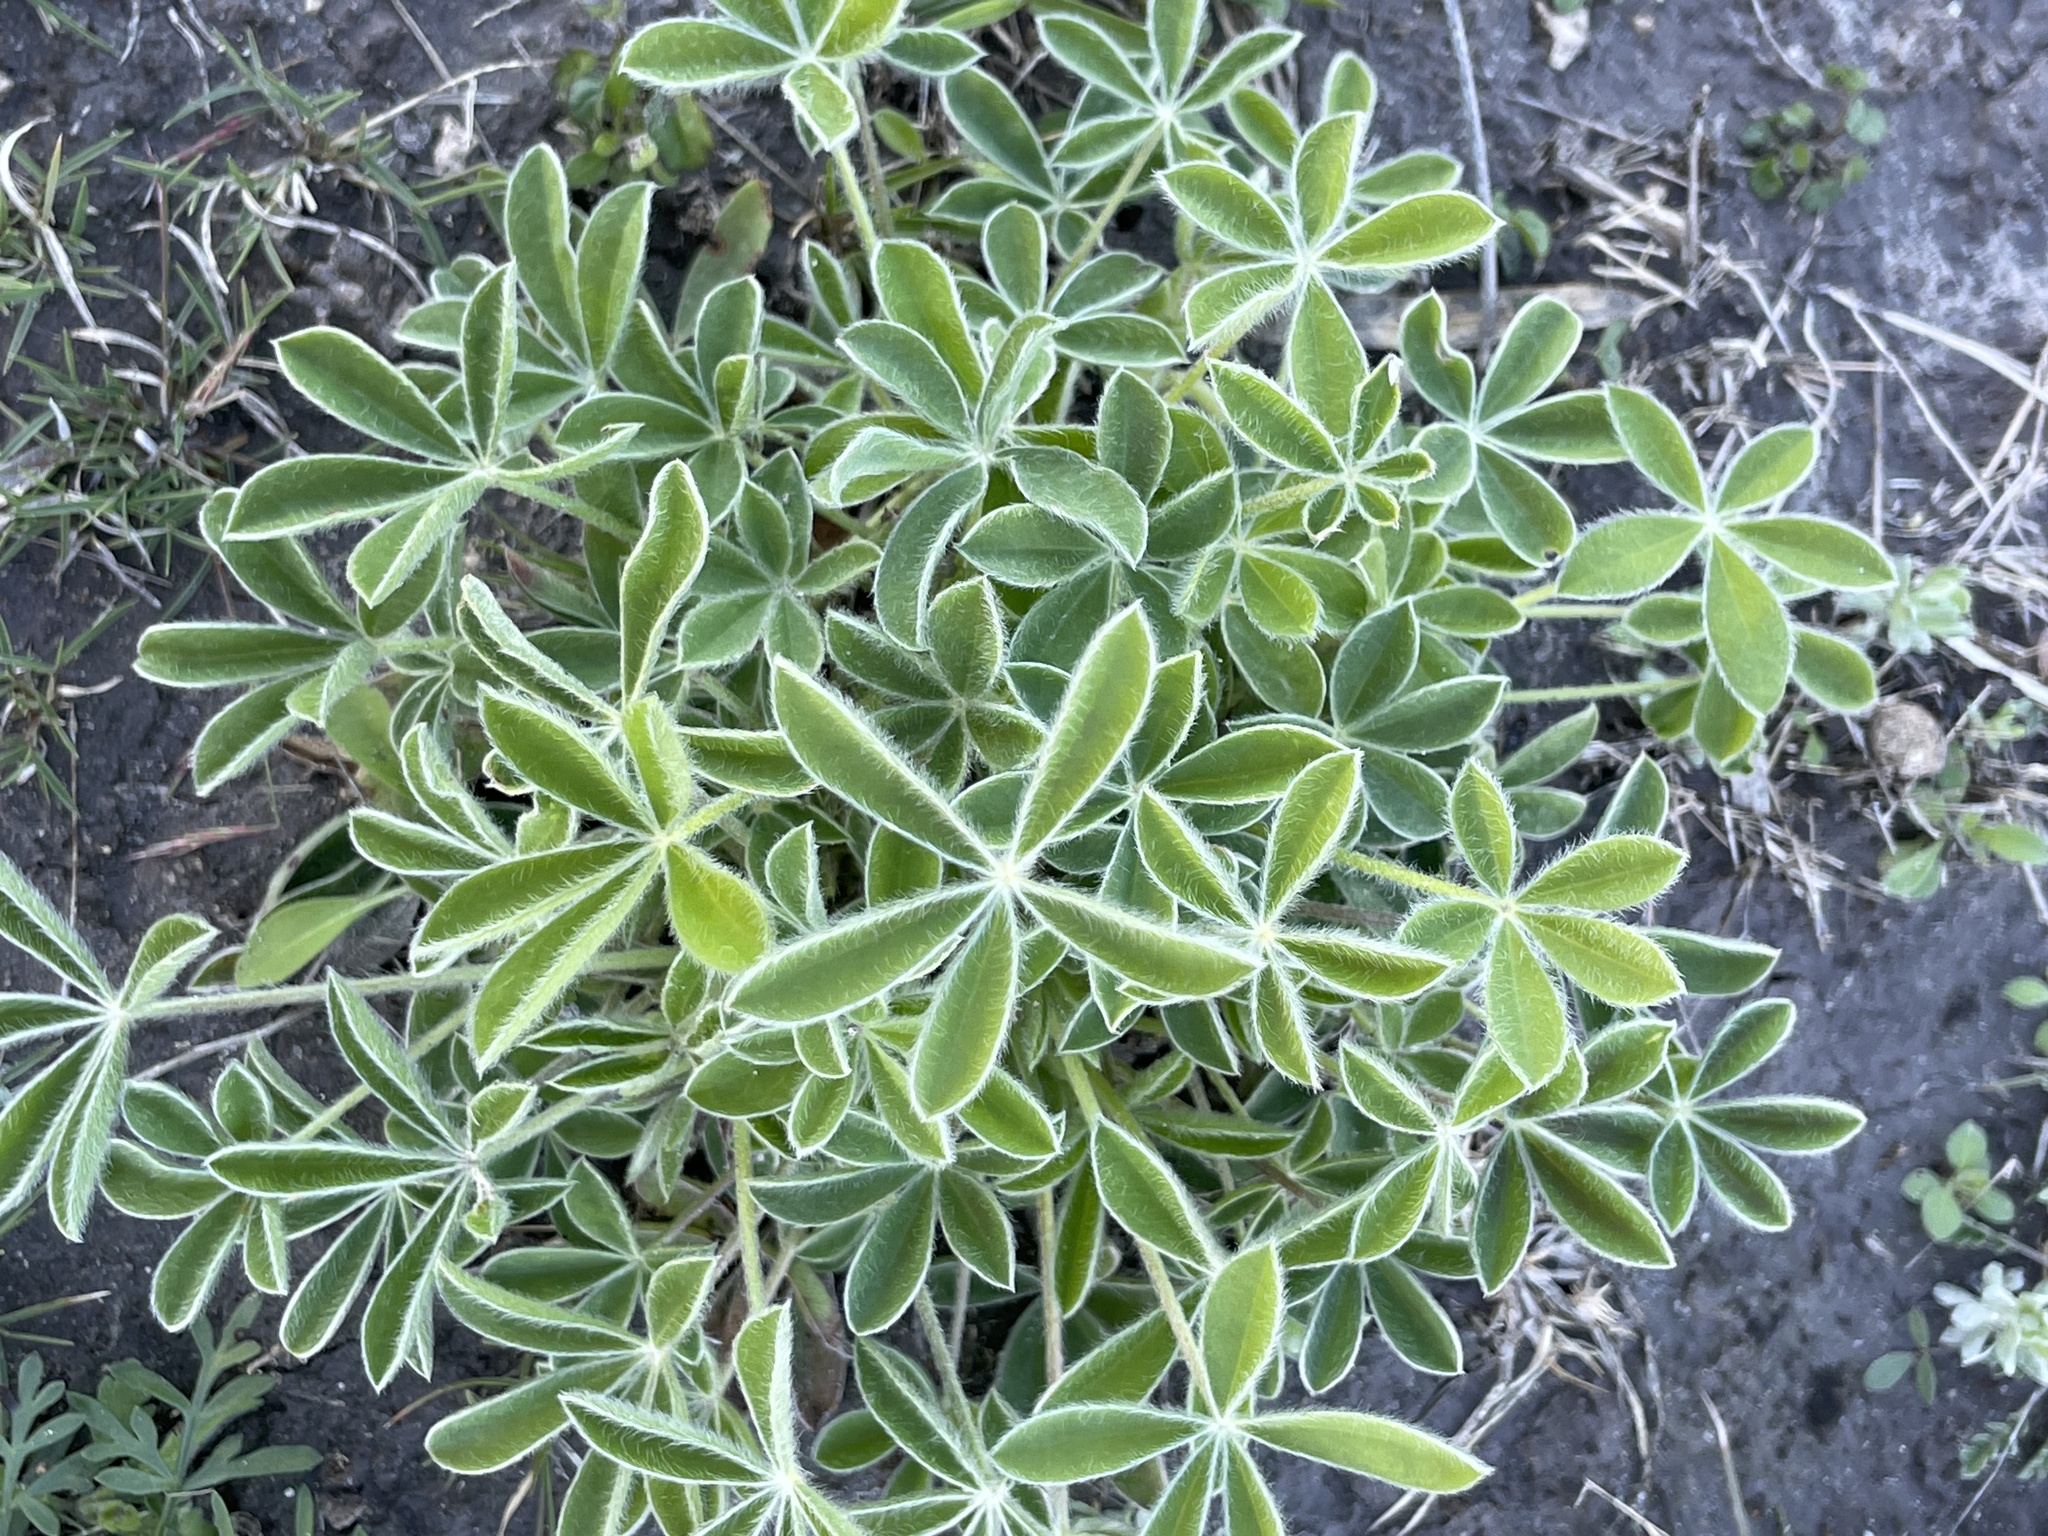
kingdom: Plantae
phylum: Tracheophyta
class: Magnoliopsida
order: Fabales
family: Fabaceae
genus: Lupinus
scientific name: Lupinus texensis
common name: Texas bluebonnet
